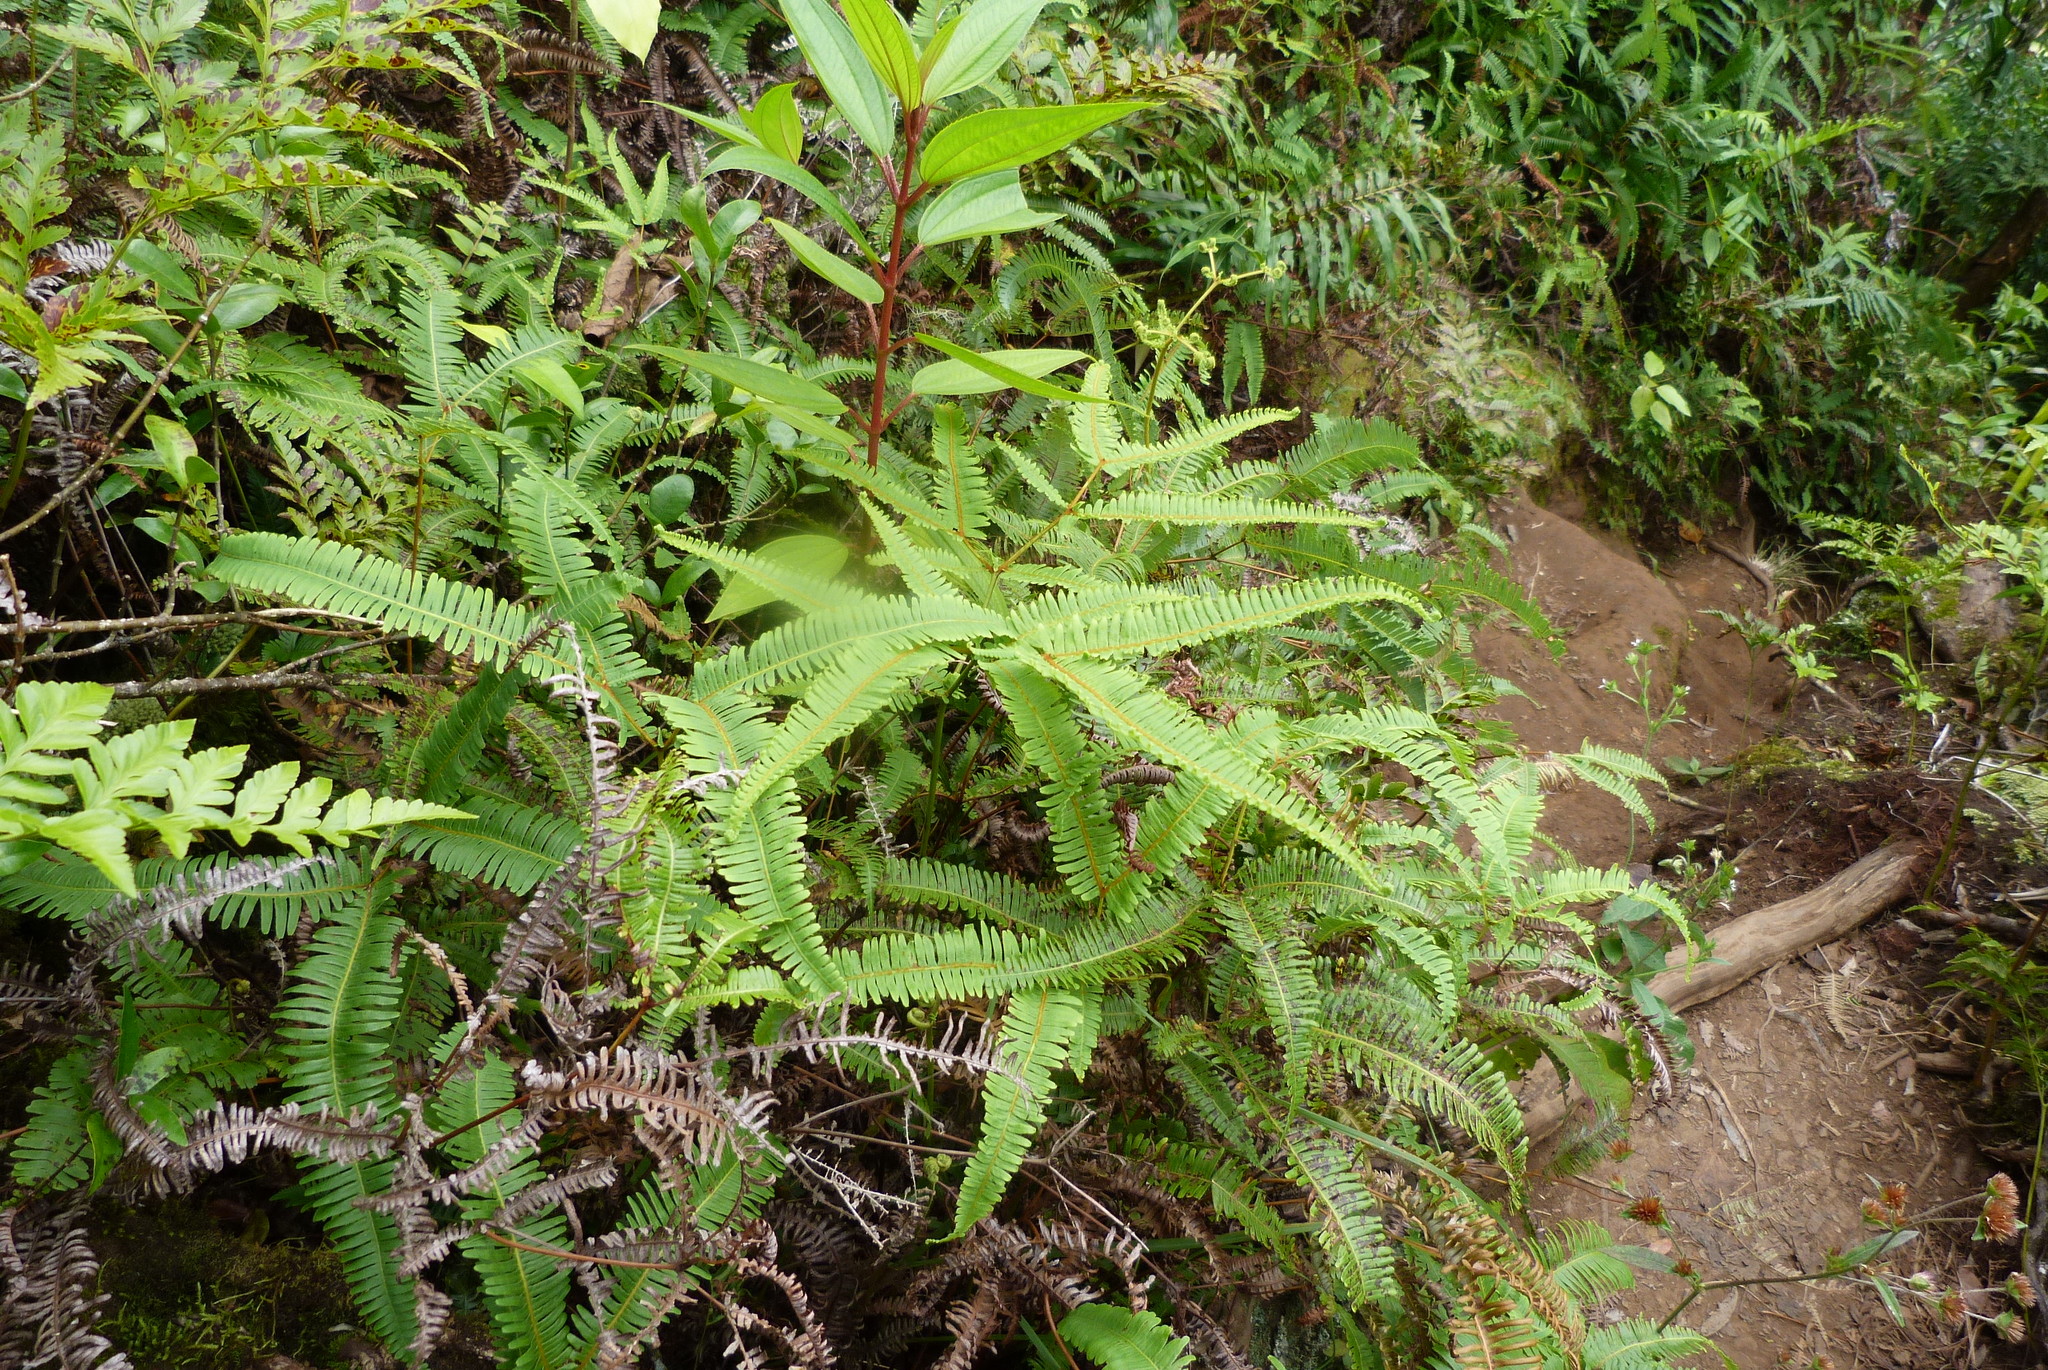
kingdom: Plantae
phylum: Tracheophyta
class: Polypodiopsida
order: Gleicheniales
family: Gleicheniaceae
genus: Dicranopteris
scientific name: Dicranopteris linearis
